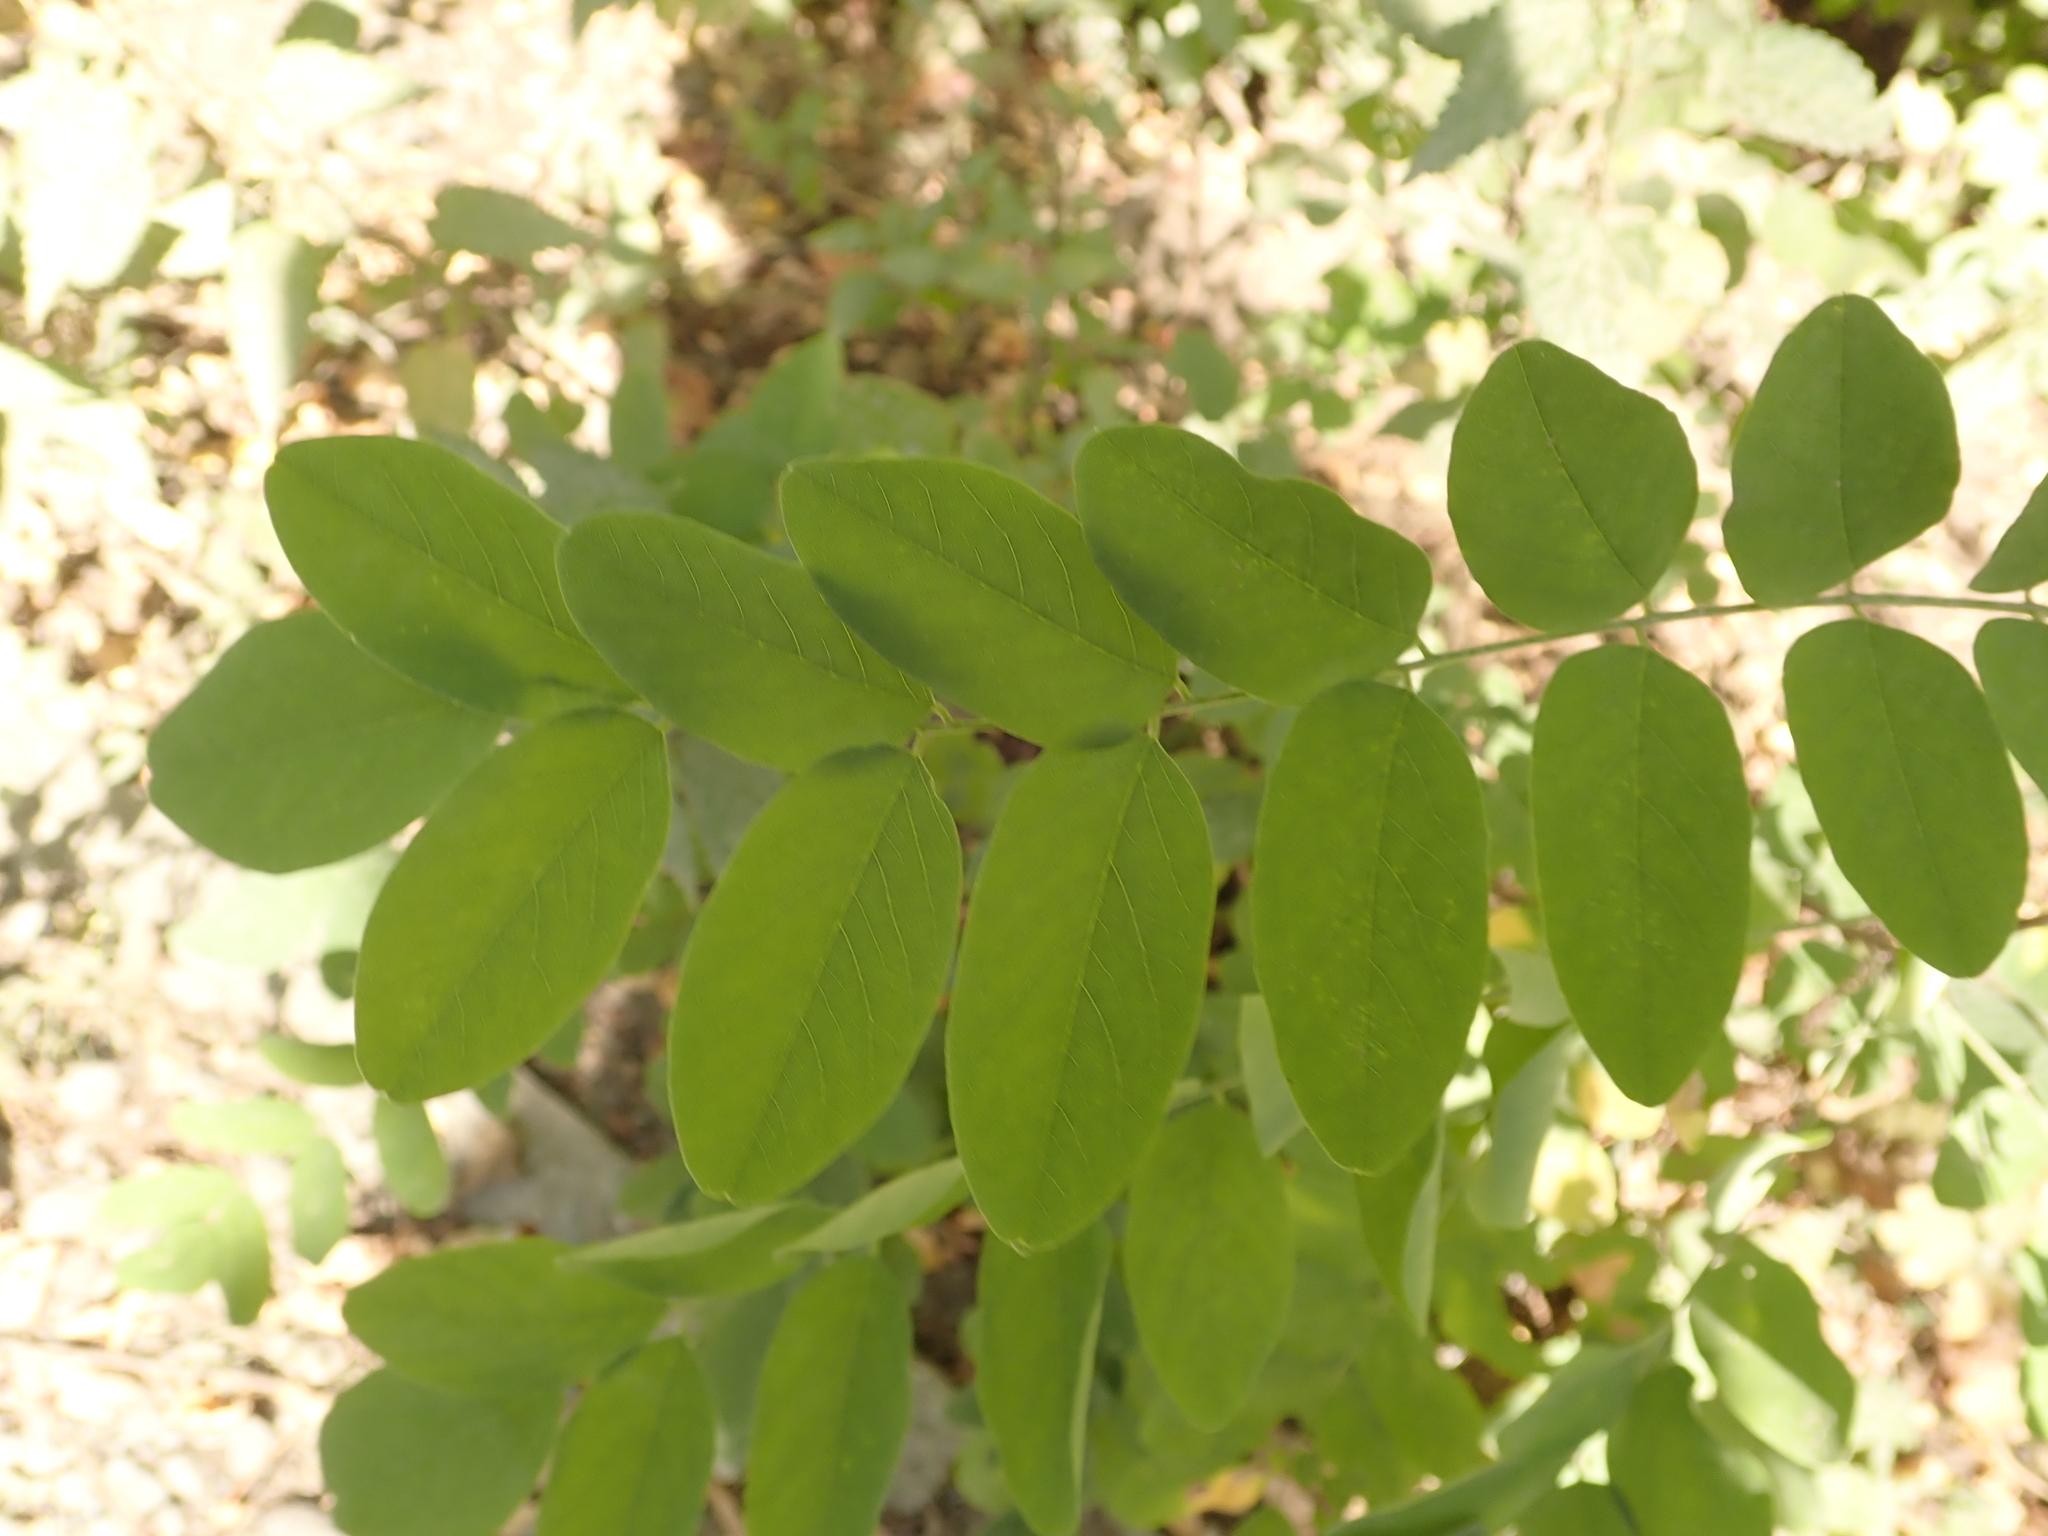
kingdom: Plantae
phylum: Tracheophyta
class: Magnoliopsida
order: Fabales
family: Fabaceae
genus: Robinia
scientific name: Robinia pseudoacacia
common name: Black locust
